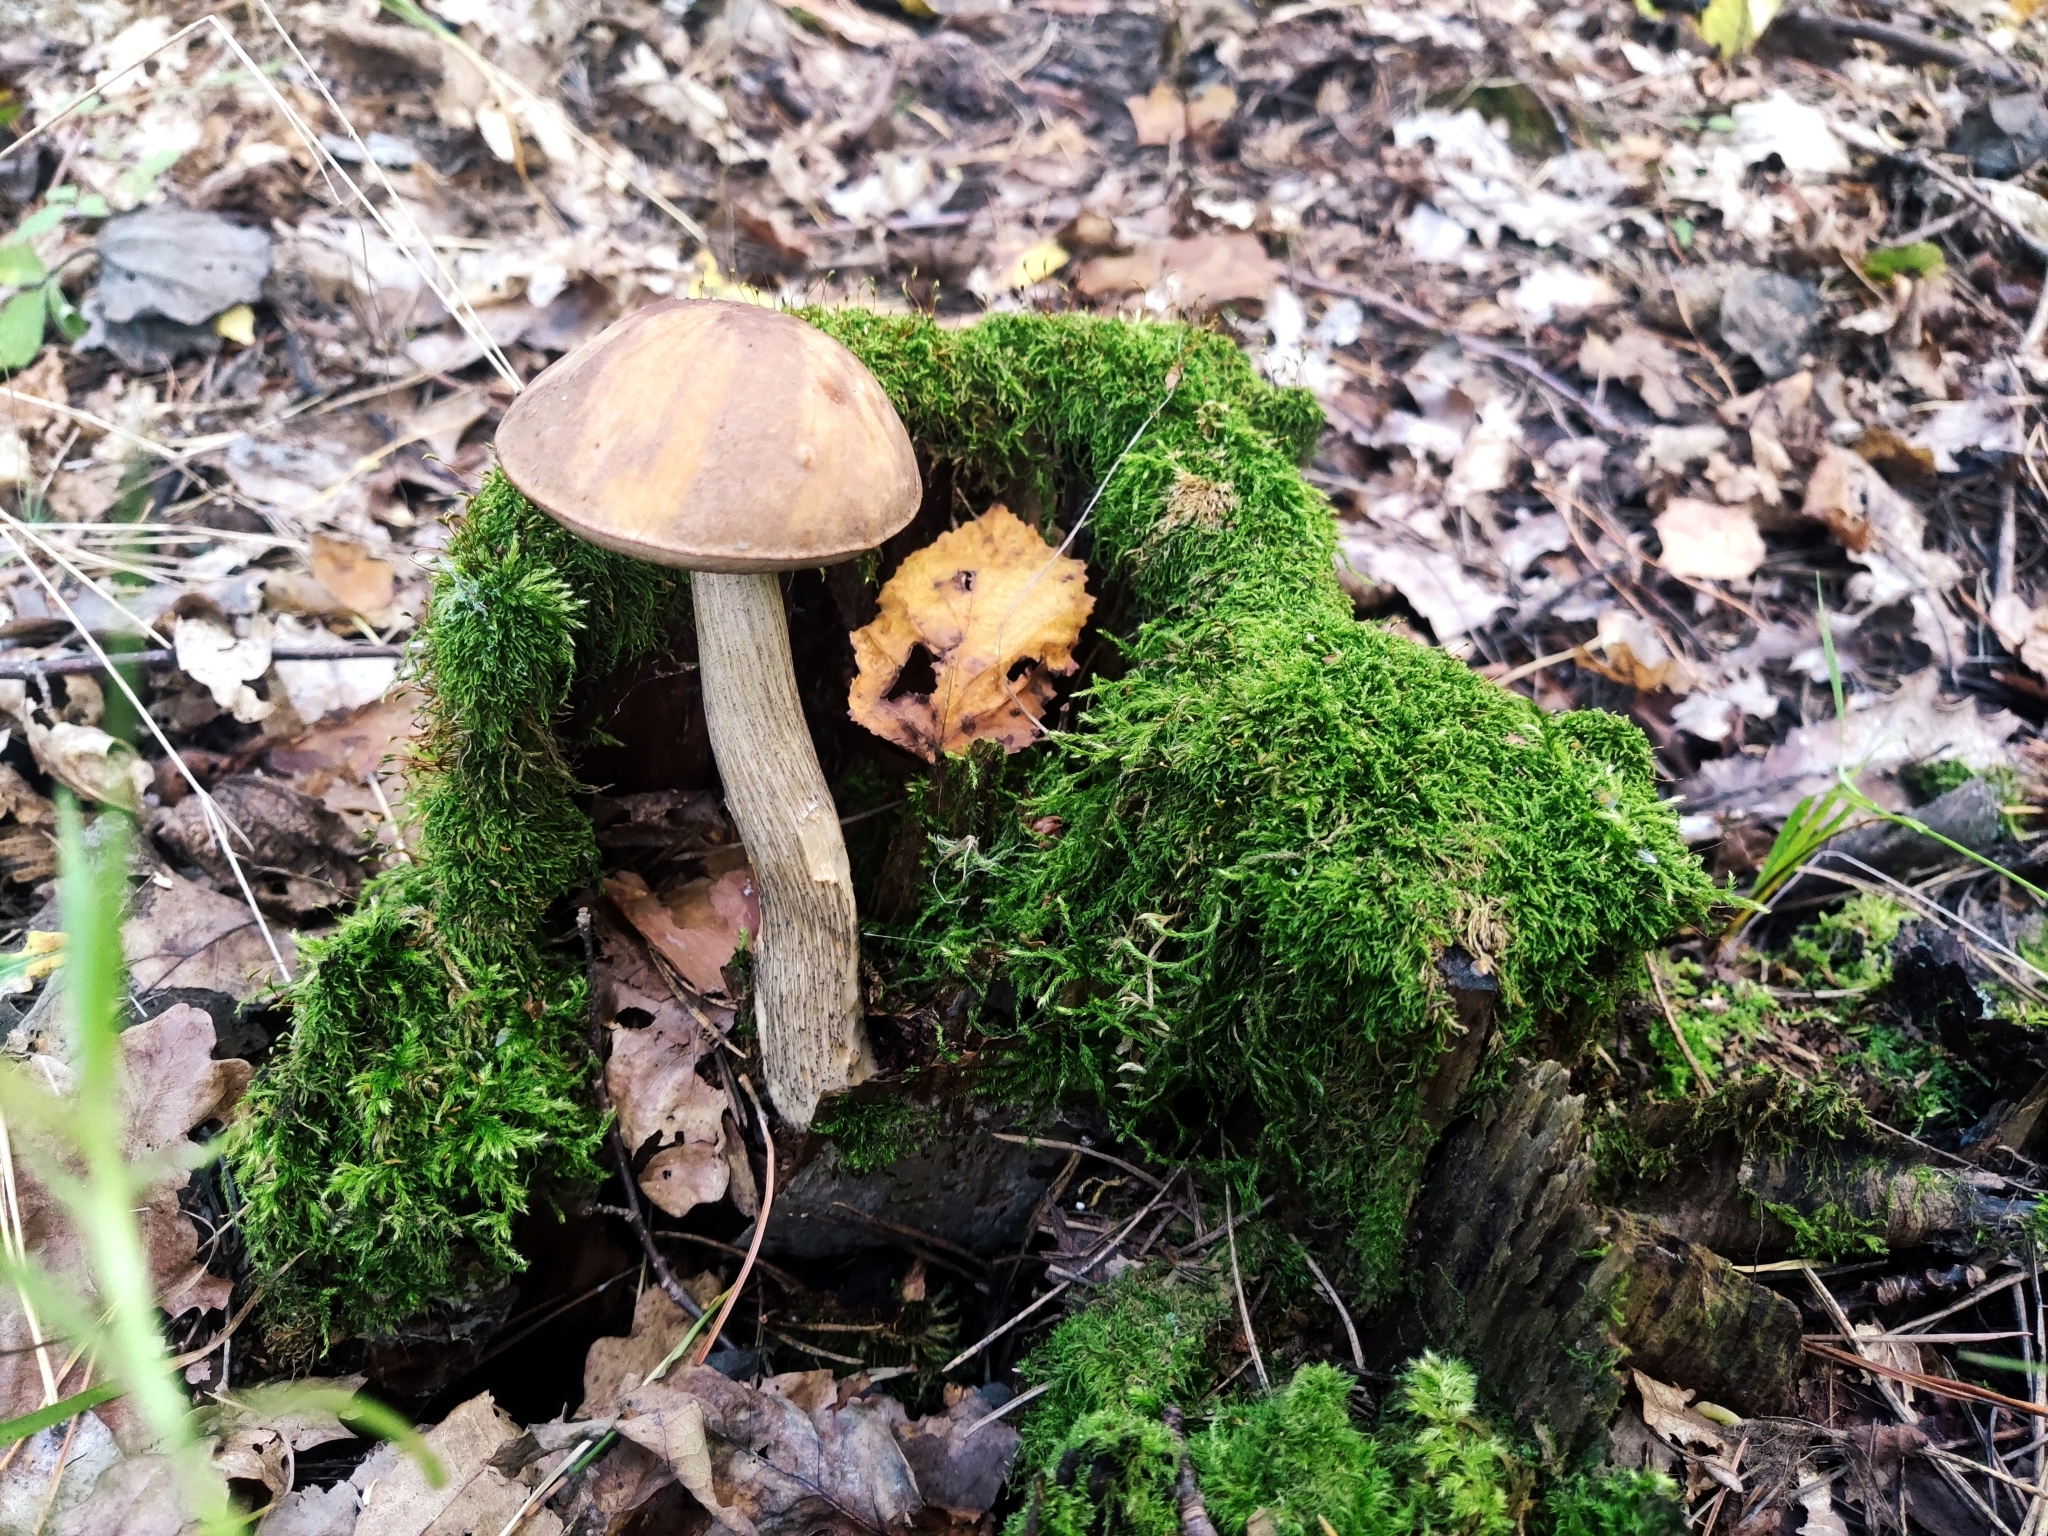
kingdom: Fungi
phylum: Basidiomycota
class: Agaricomycetes
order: Boletales
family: Boletaceae
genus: Leccinum
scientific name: Leccinum scabrum
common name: Blushing bolete
